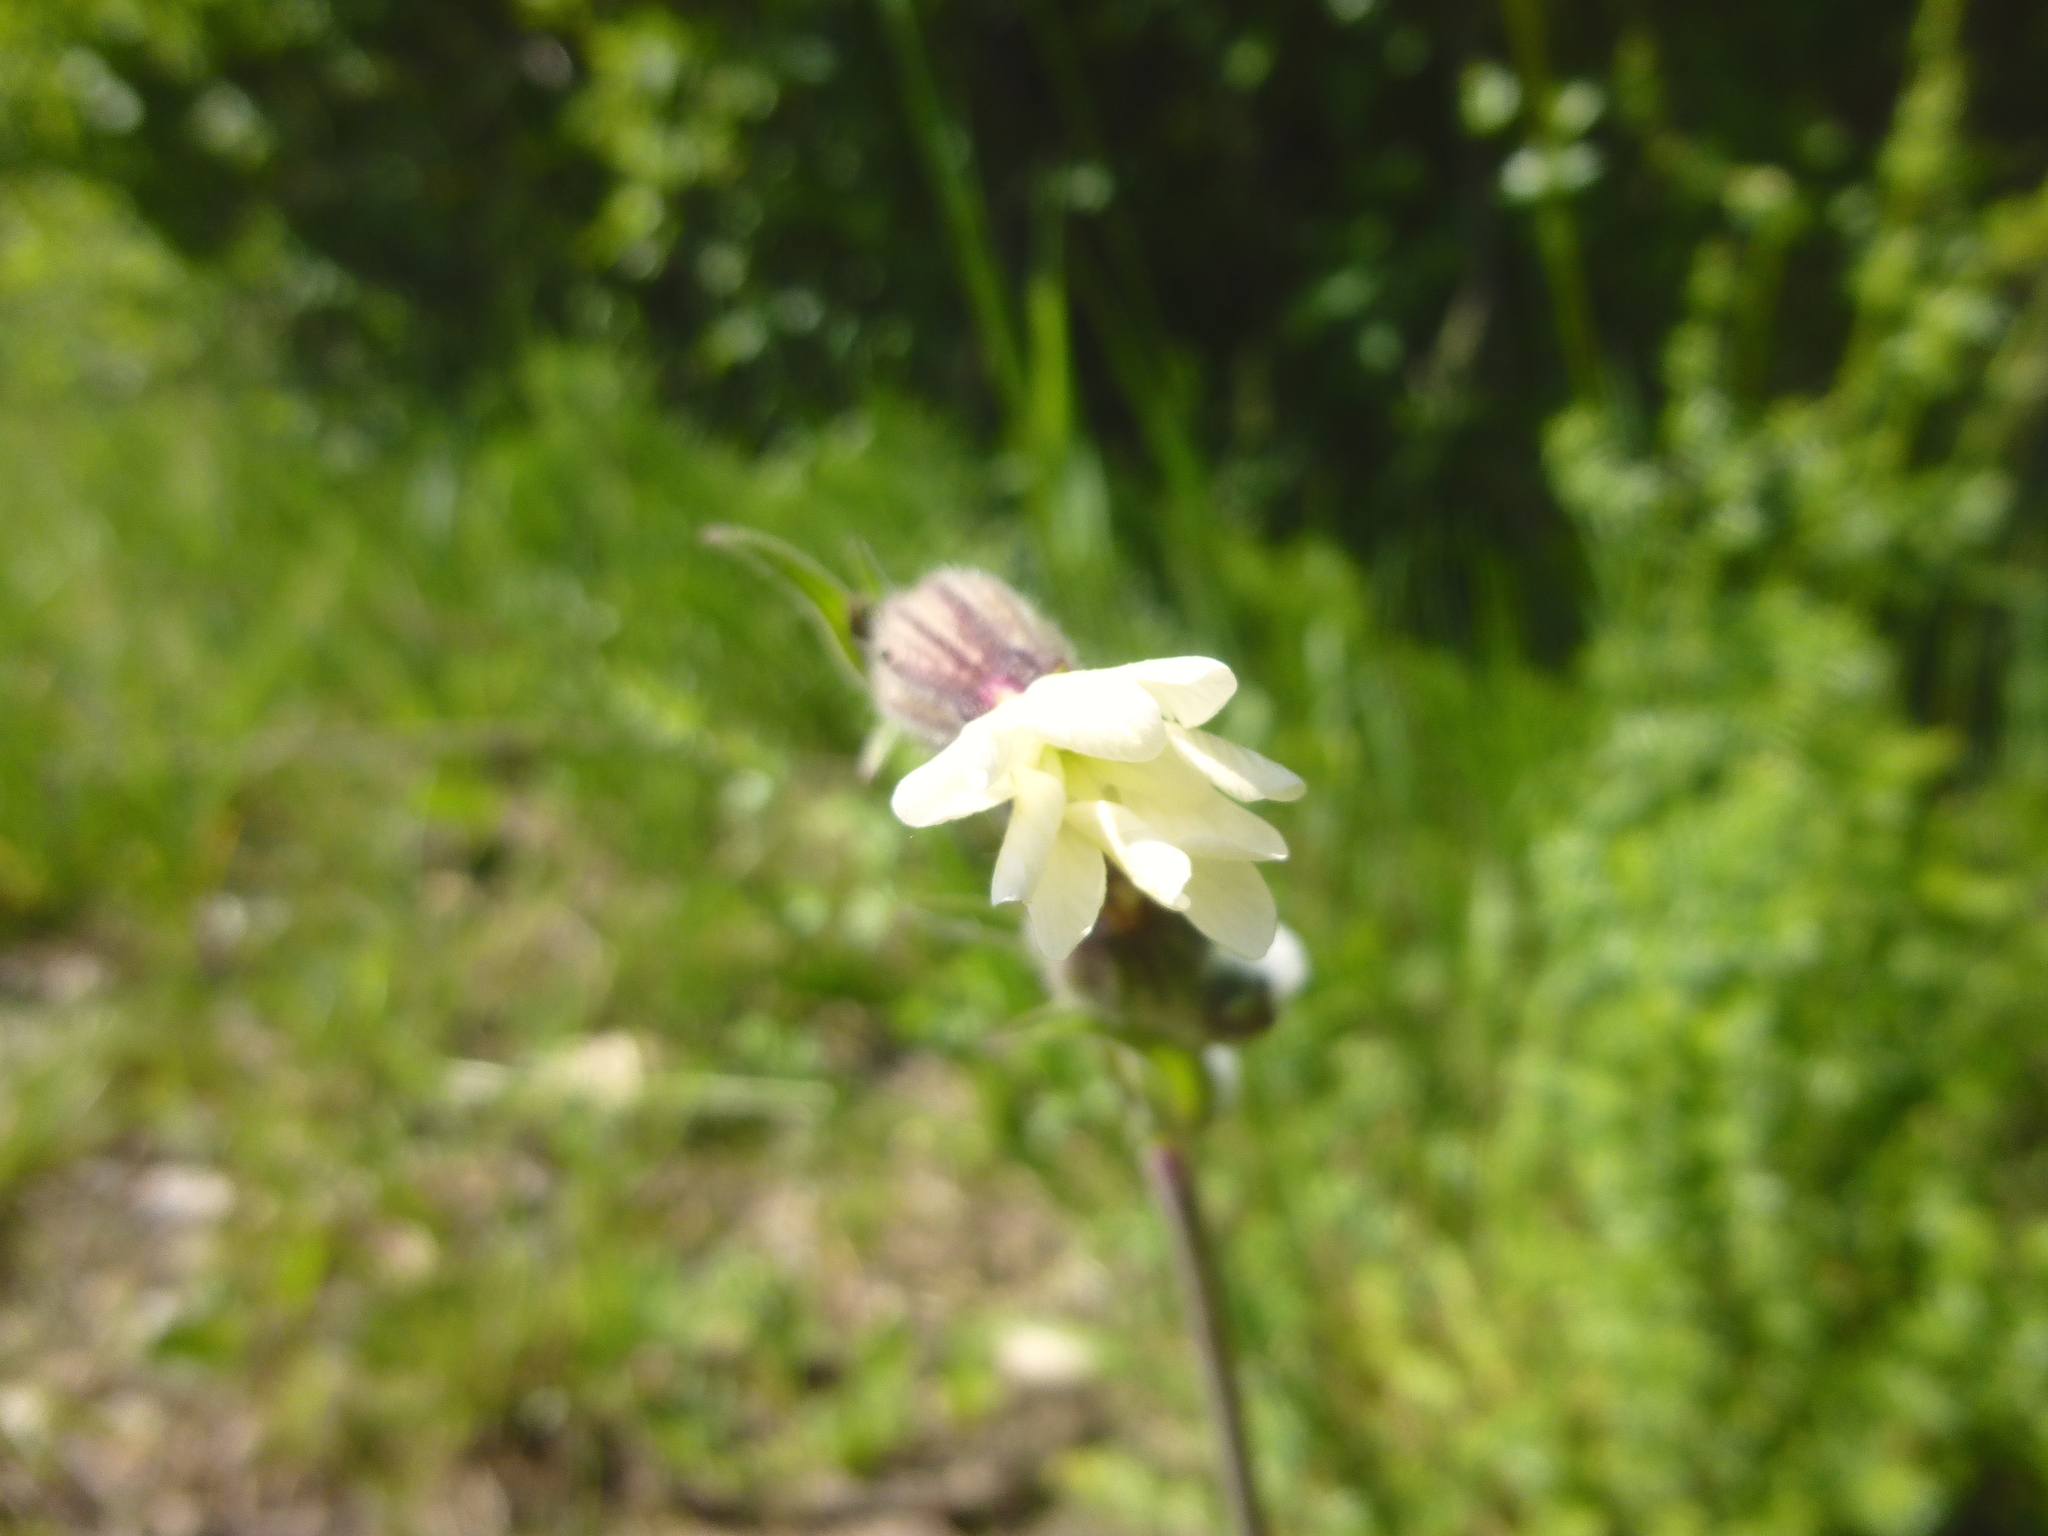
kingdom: Plantae
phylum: Tracheophyta
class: Magnoliopsida
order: Caryophyllales
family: Caryophyllaceae
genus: Silene
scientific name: Silene latifolia
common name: White campion
